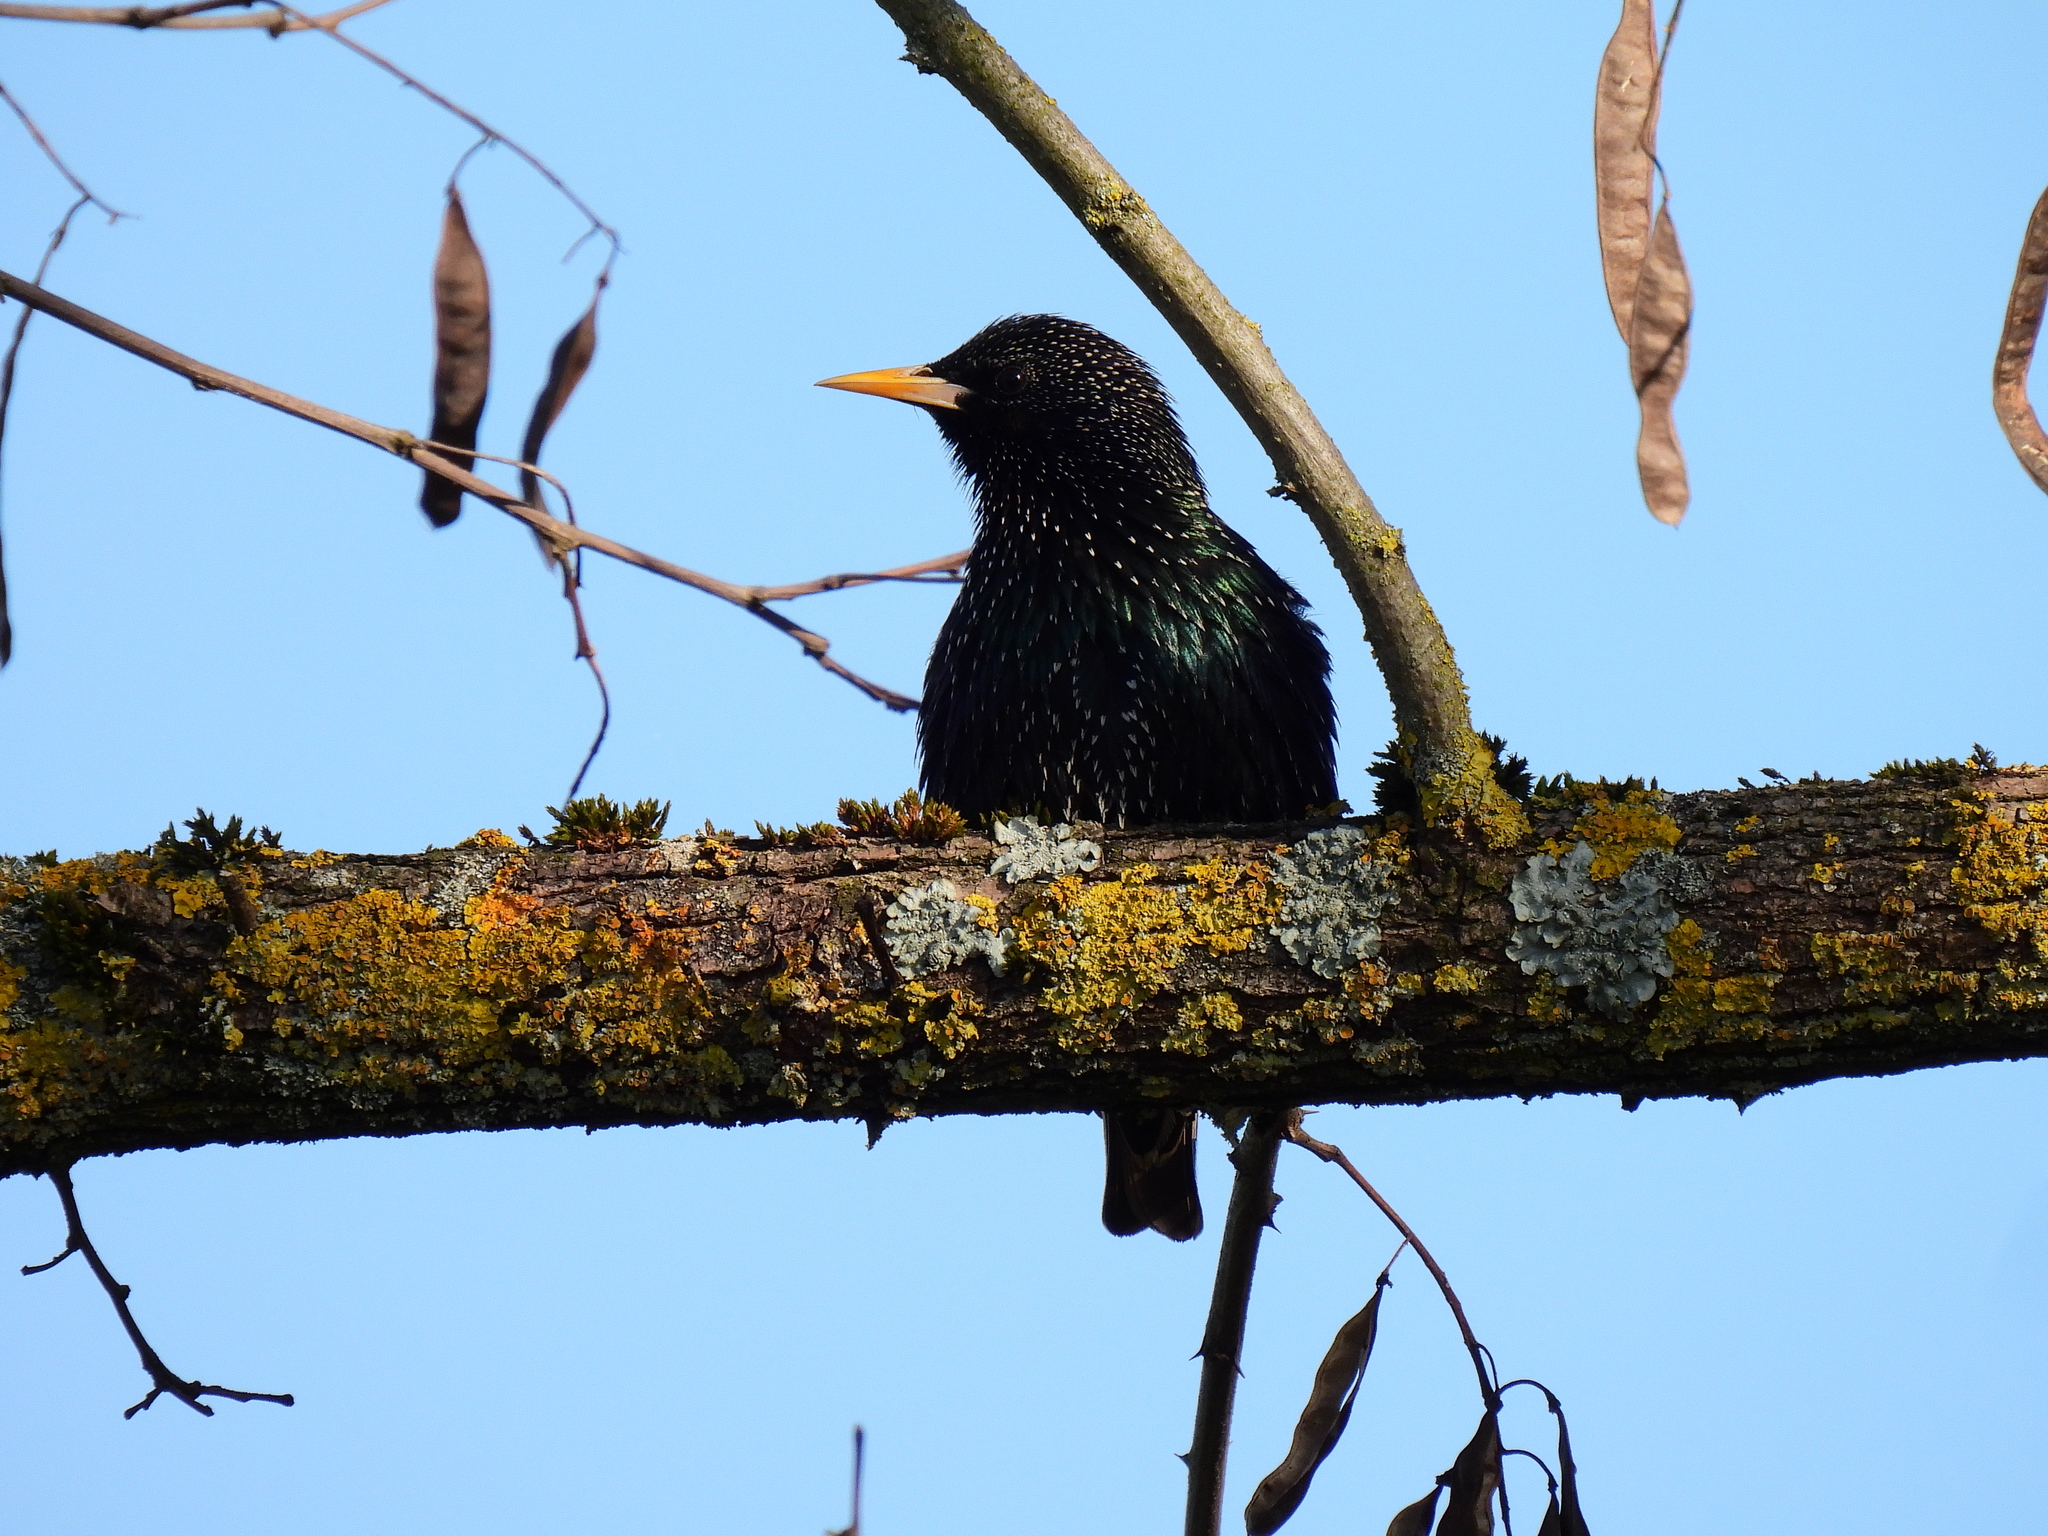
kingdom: Animalia
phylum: Chordata
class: Aves
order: Passeriformes
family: Sturnidae
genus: Sturnus
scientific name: Sturnus vulgaris
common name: Common starling
